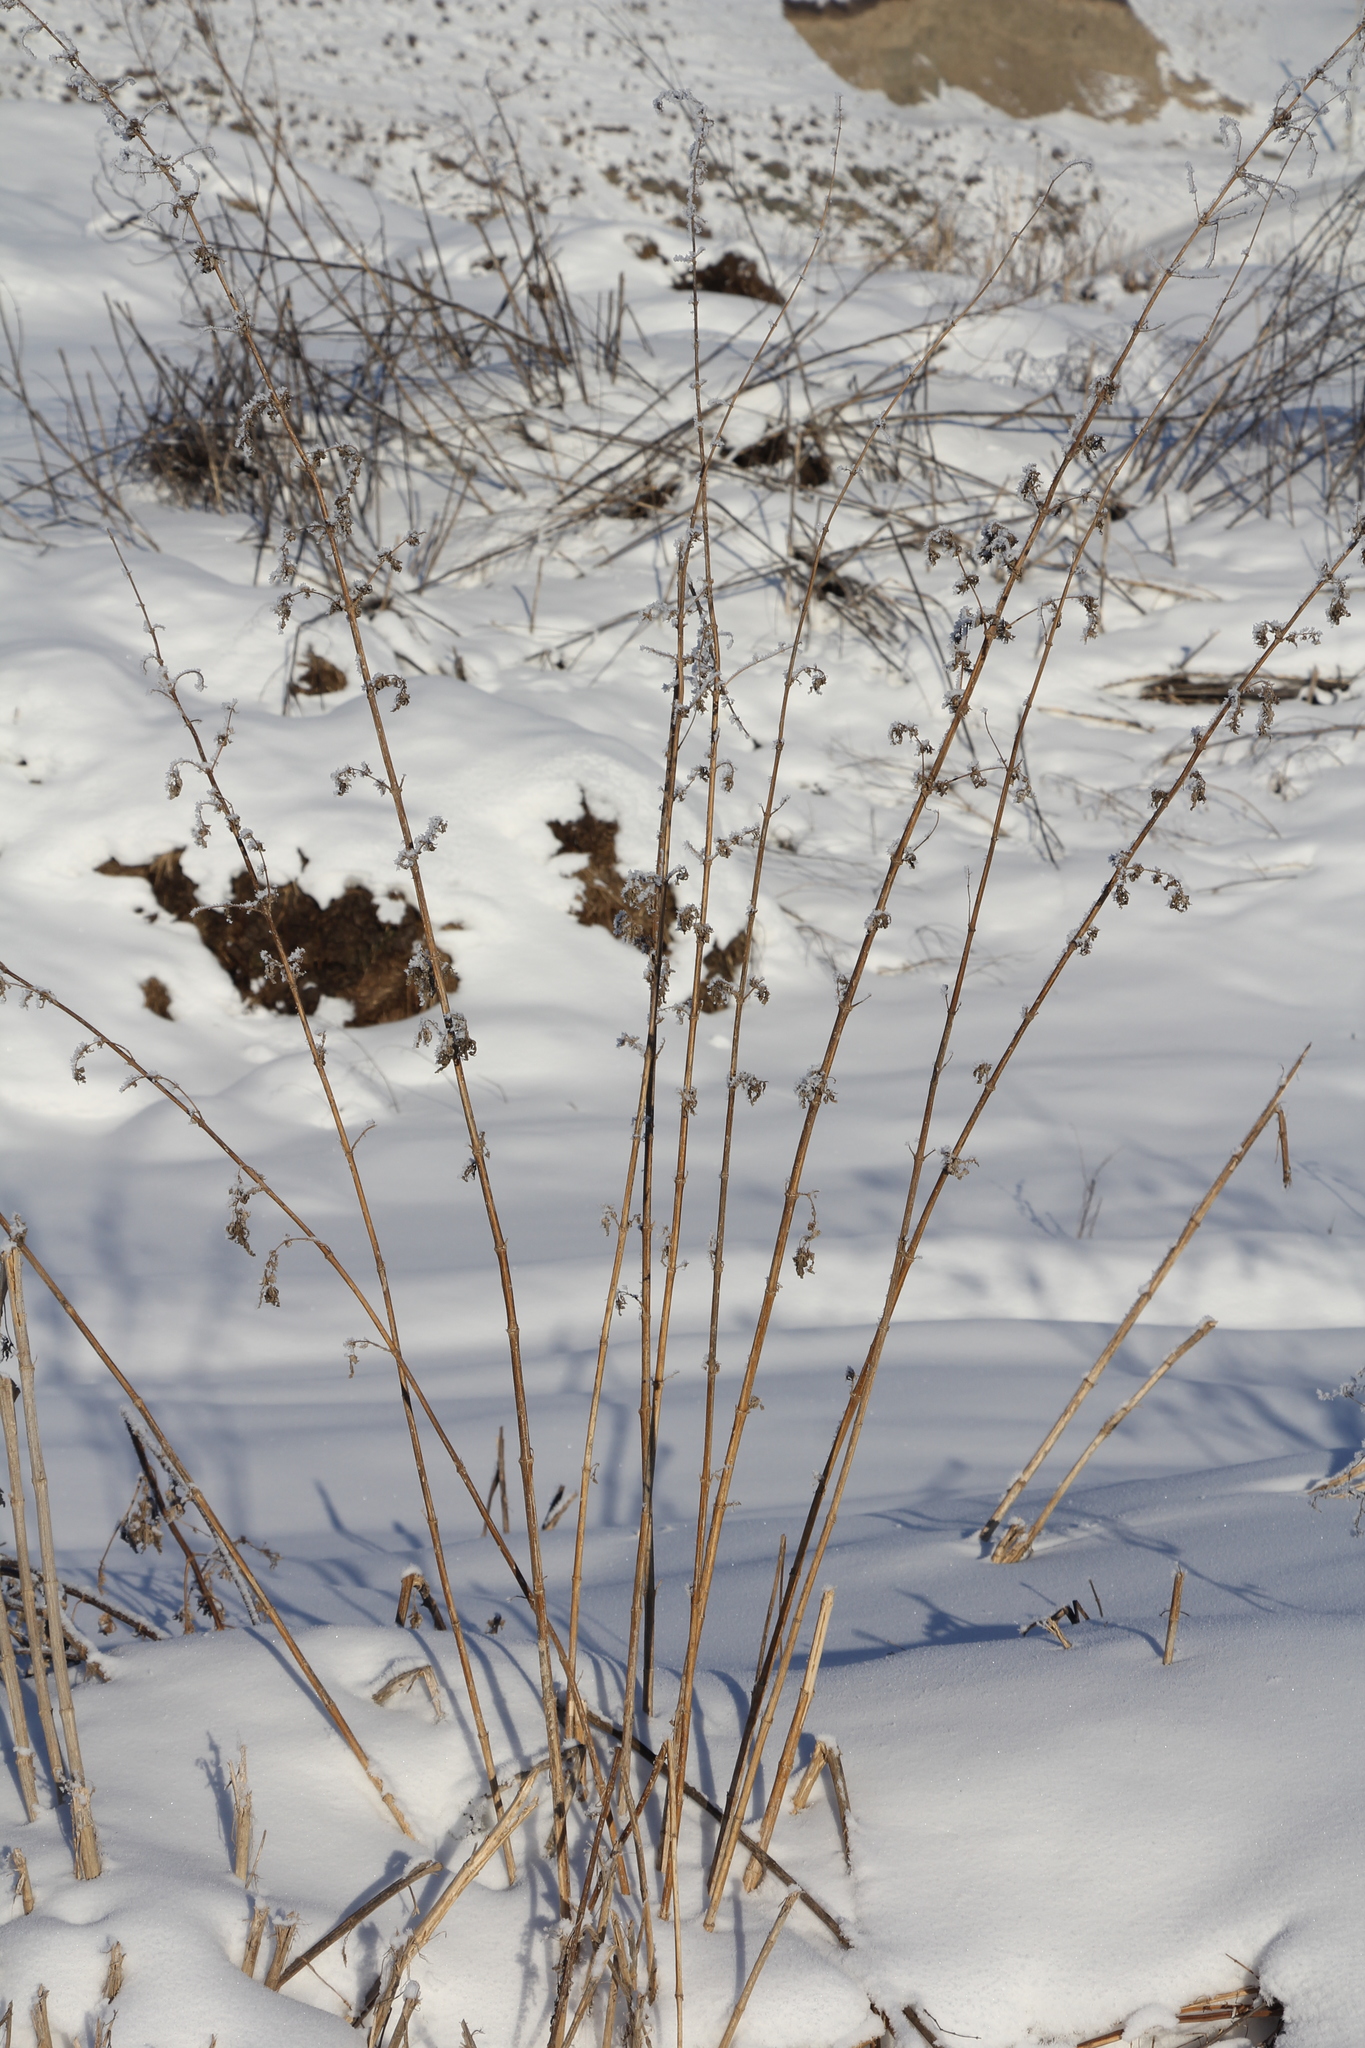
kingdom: Plantae
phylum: Tracheophyta
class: Magnoliopsida
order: Rosales
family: Urticaceae
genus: Urtica
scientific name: Urtica dioica
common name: Common nettle
